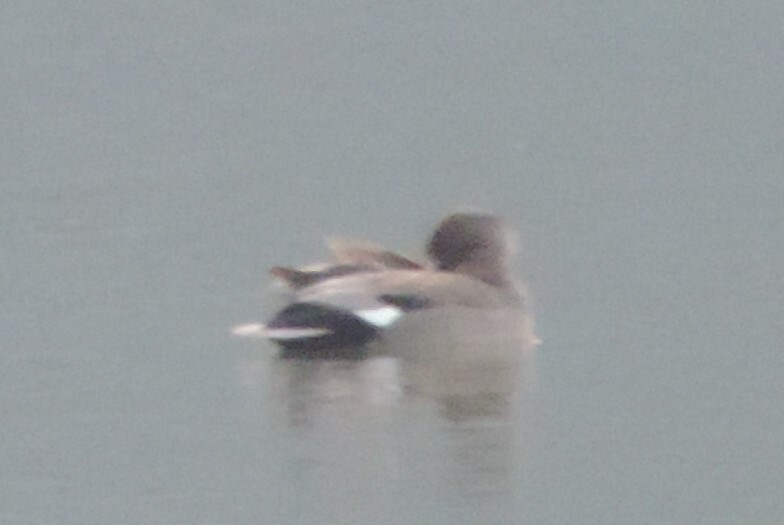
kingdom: Animalia
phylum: Chordata
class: Aves
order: Anseriformes
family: Anatidae
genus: Mareca
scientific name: Mareca strepera
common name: Gadwall
